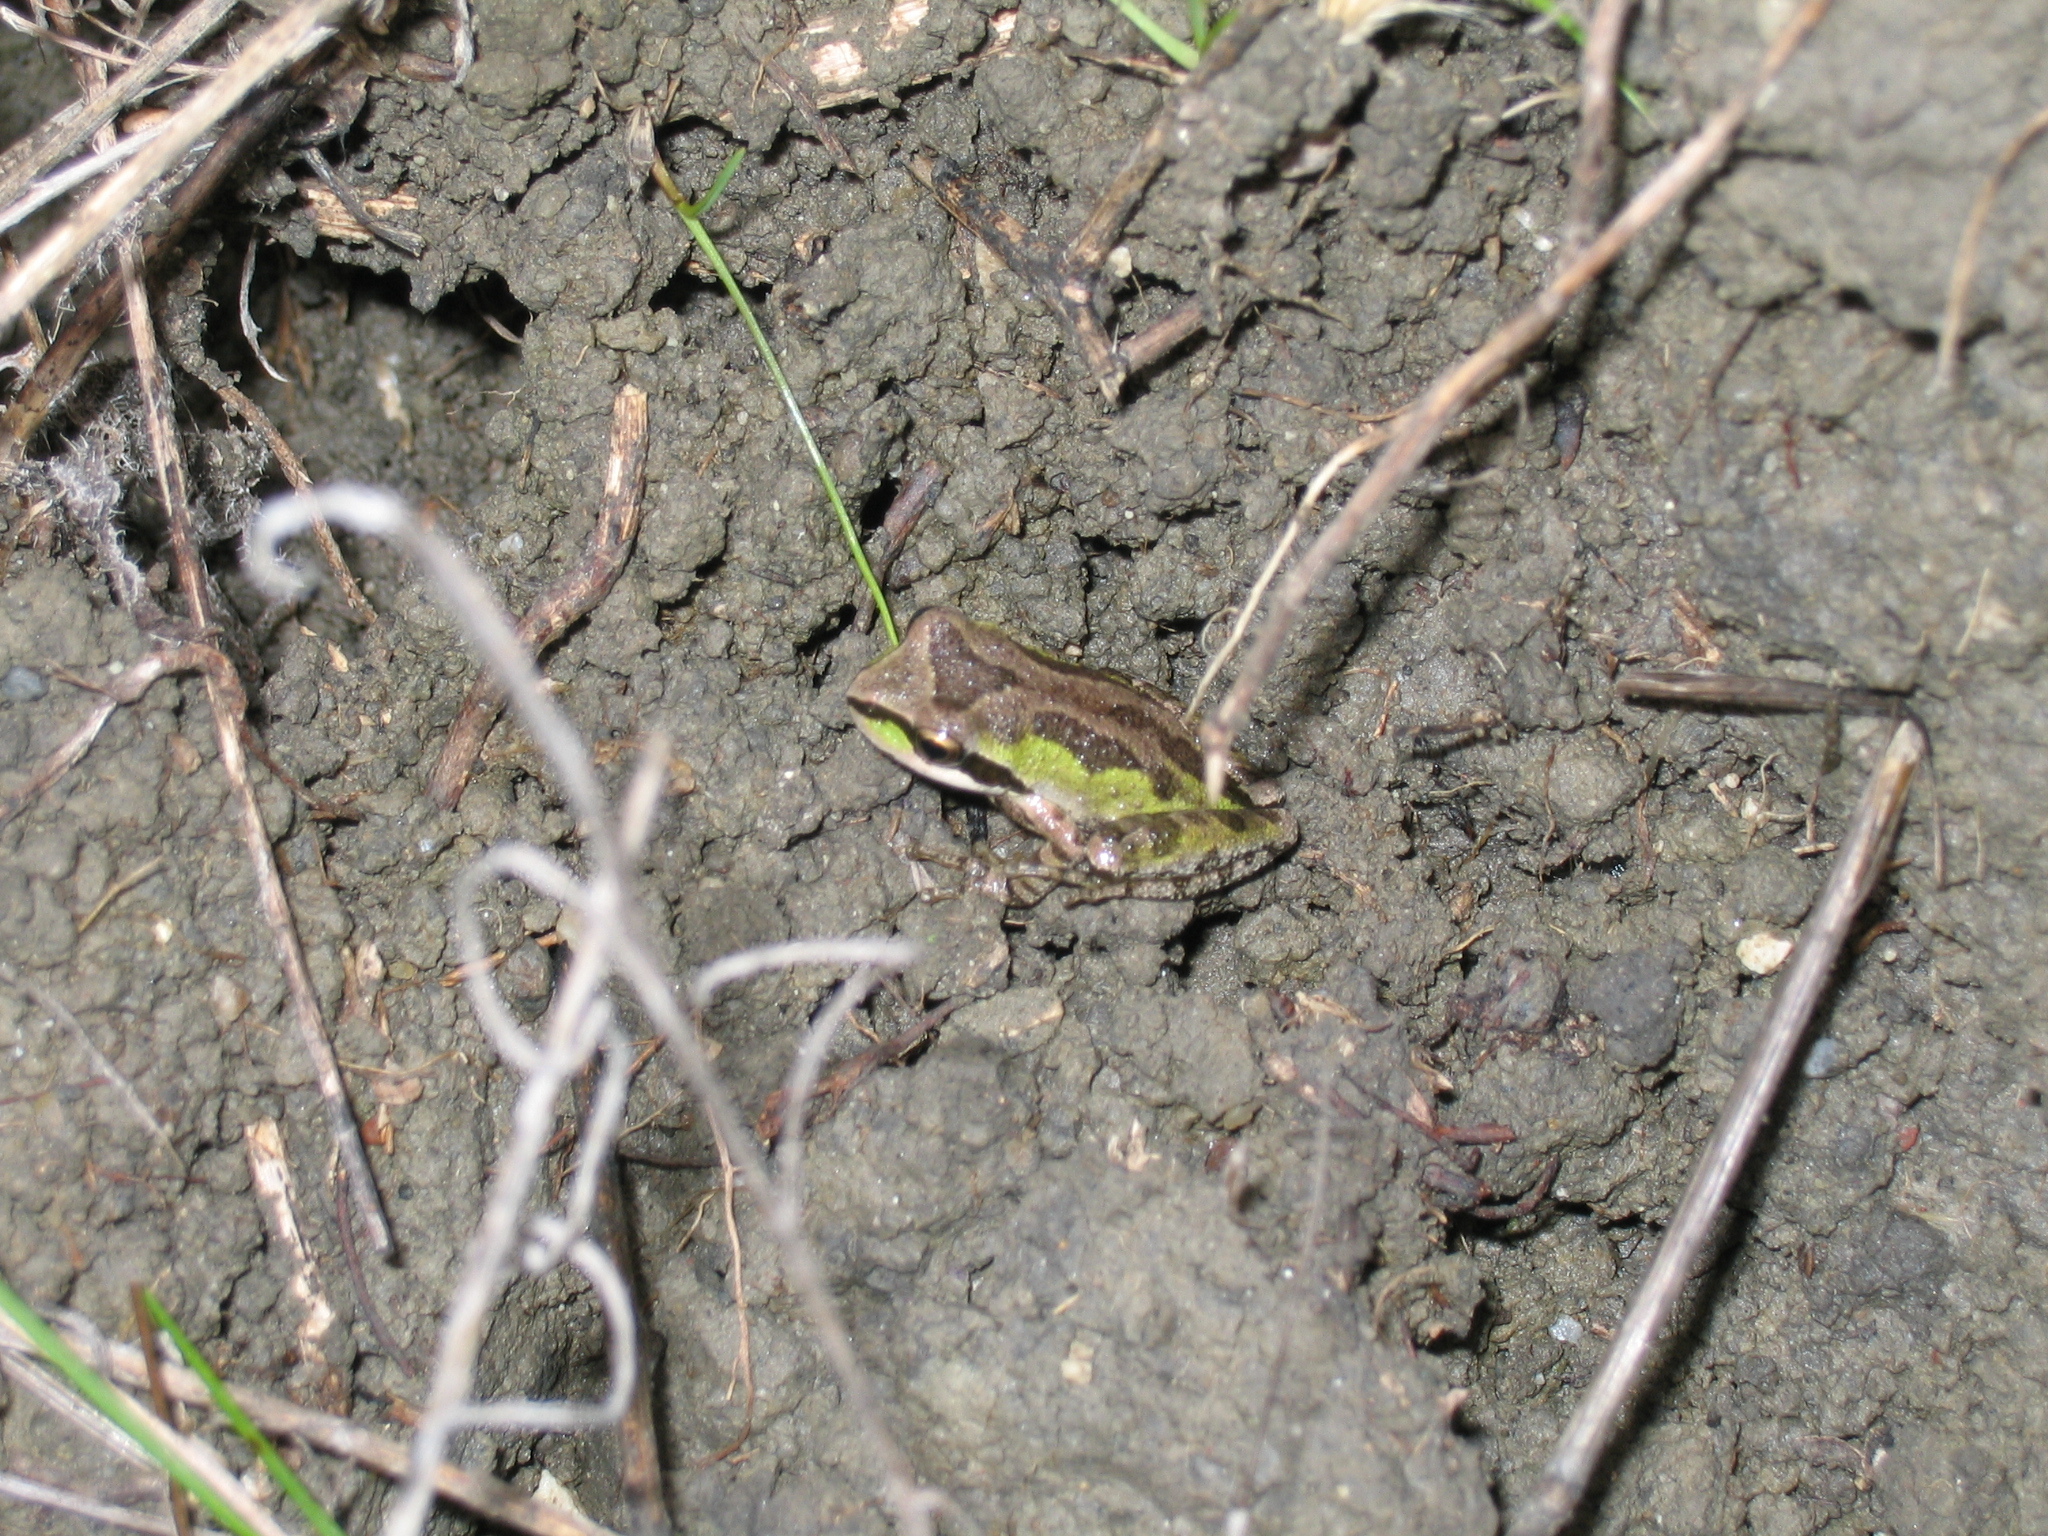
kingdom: Animalia
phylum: Chordata
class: Amphibia
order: Anura
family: Hylidae
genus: Pseudacris
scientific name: Pseudacris regilla
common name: Pacific chorus frog
